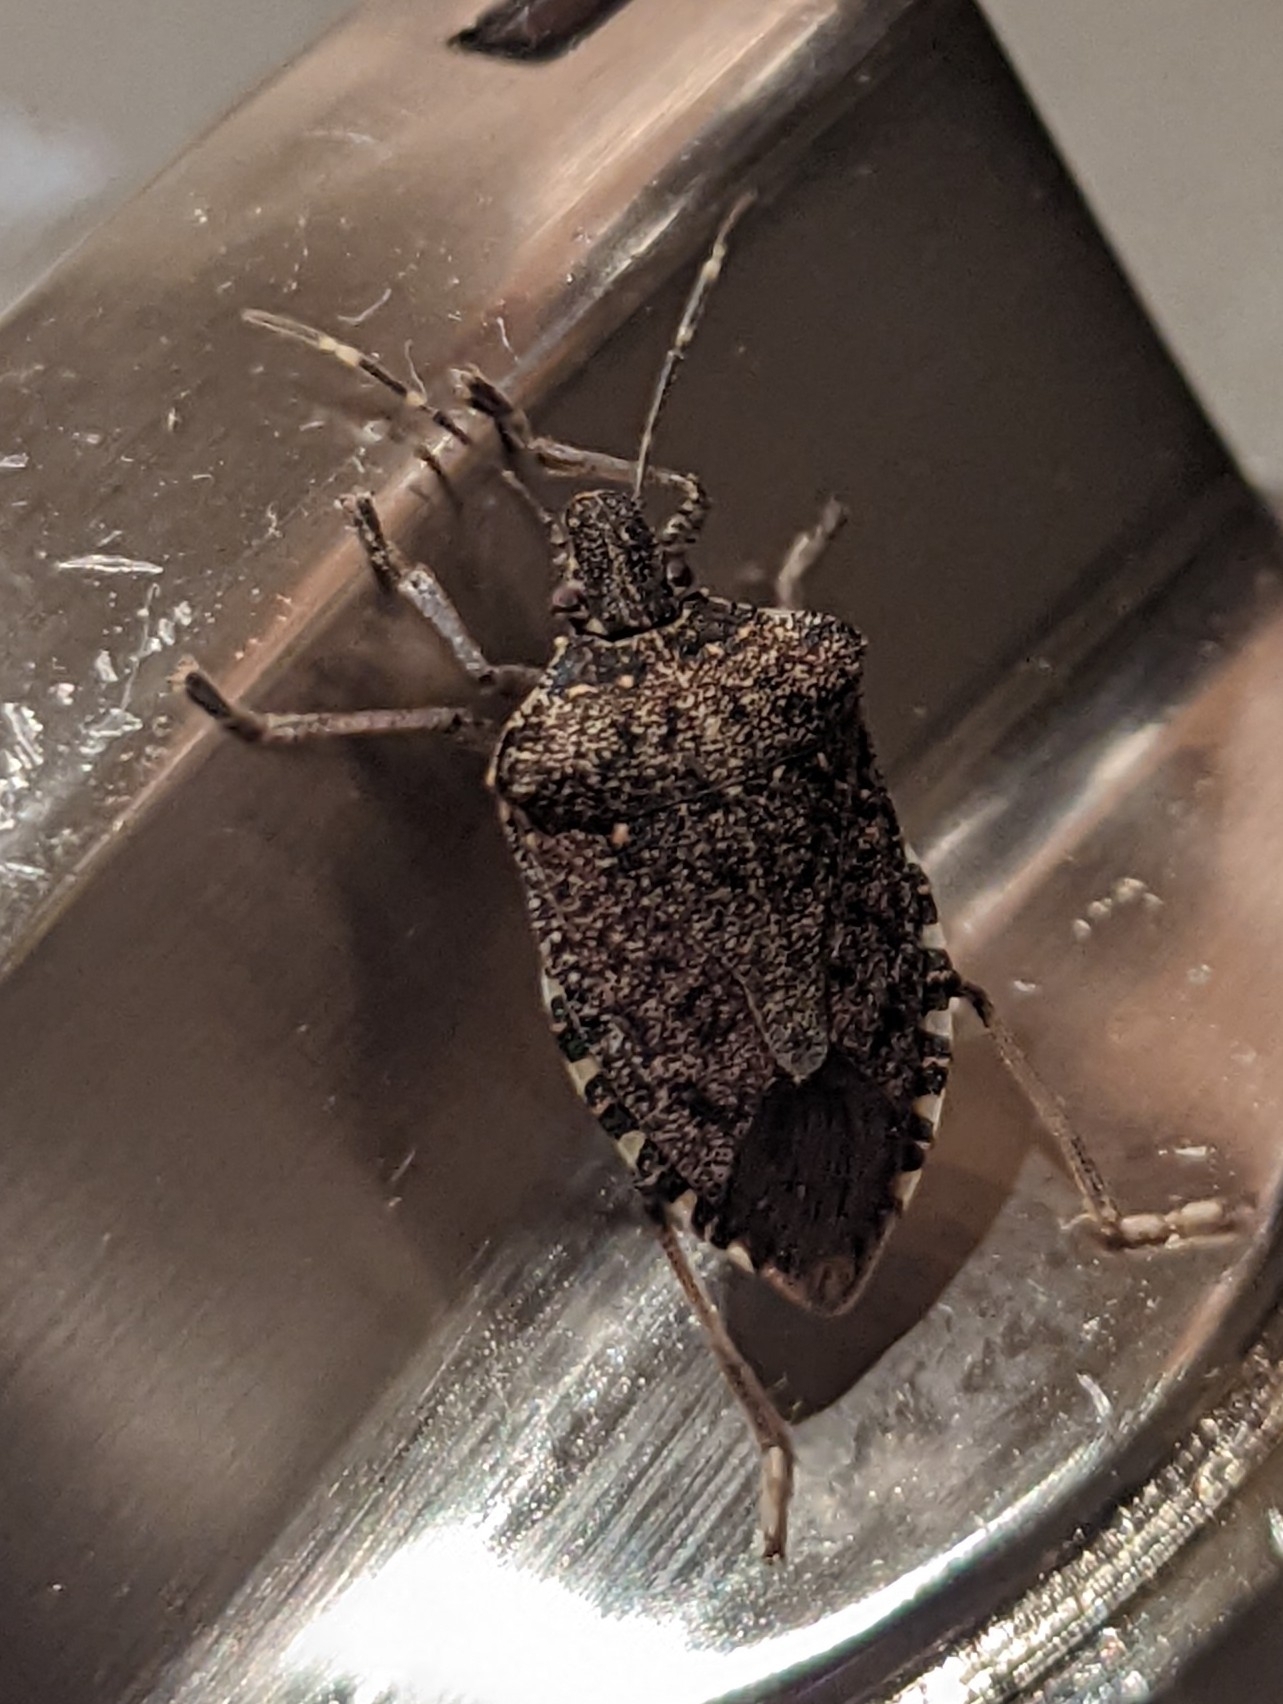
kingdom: Animalia
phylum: Arthropoda
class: Insecta
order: Hemiptera
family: Pentatomidae
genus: Halyomorpha
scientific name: Halyomorpha halys
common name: Brown marmorated stink bug
